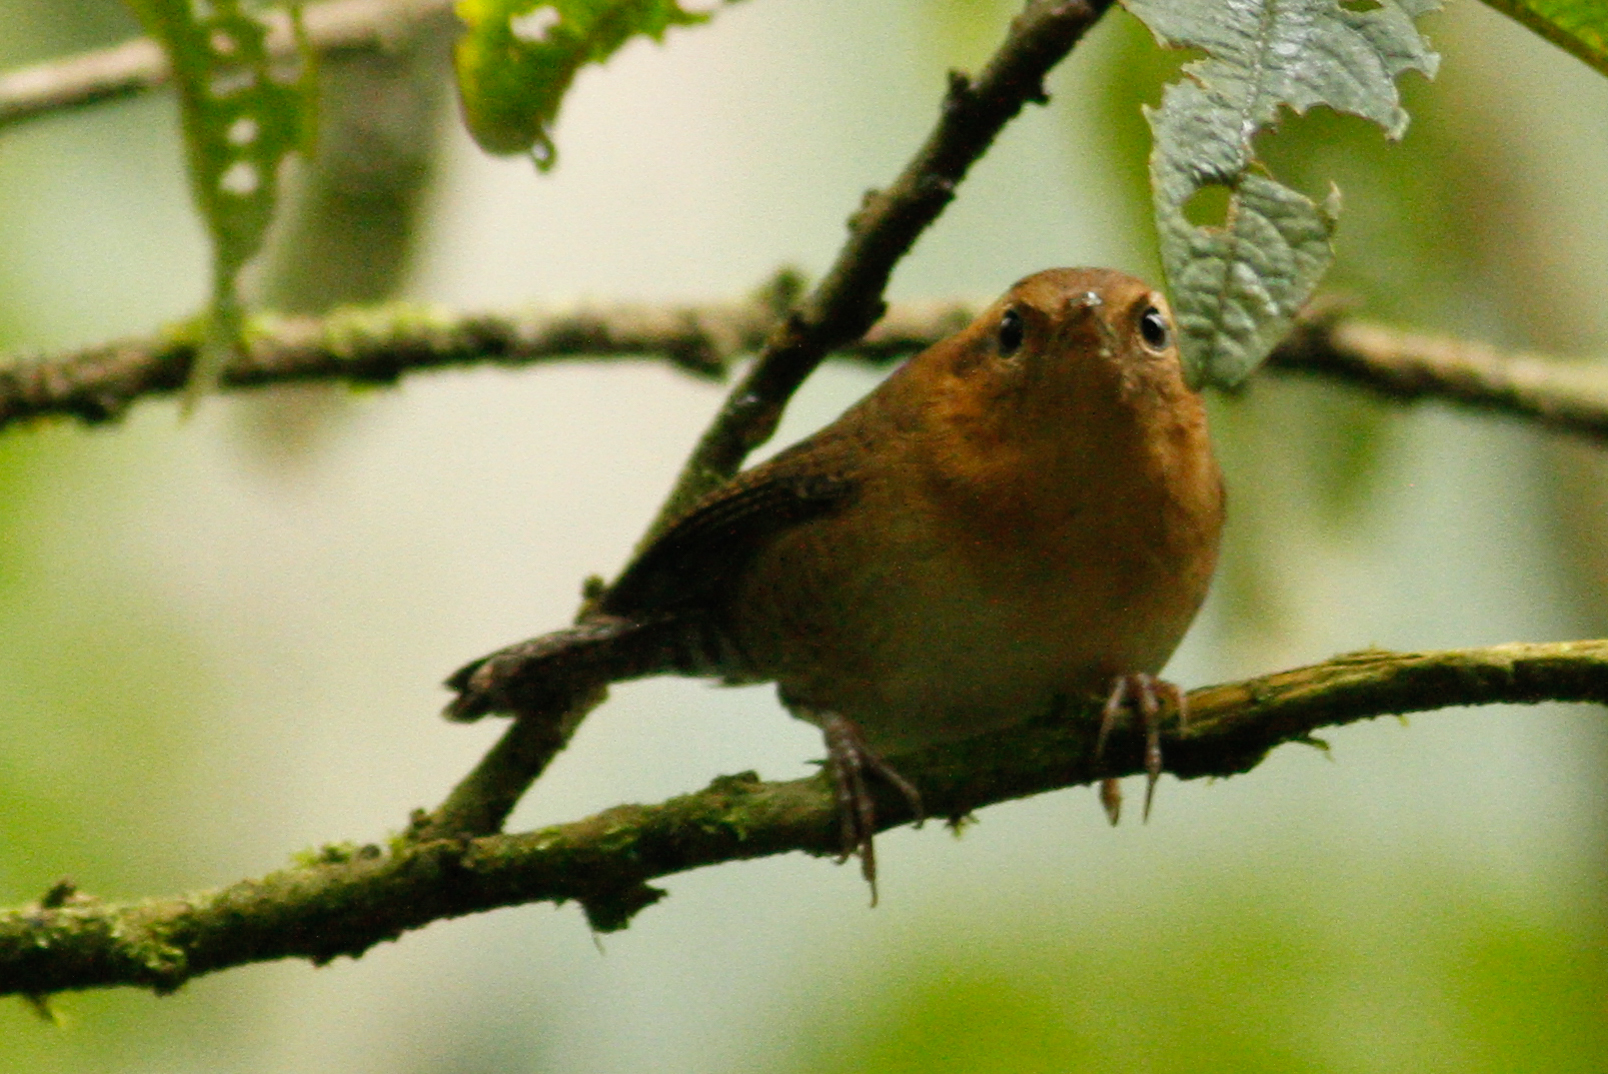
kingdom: Animalia
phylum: Chordata
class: Aves
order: Passeriformes
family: Troglodytidae
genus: Troglodytes
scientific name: Troglodytes solstitialis
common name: Mountain wren
